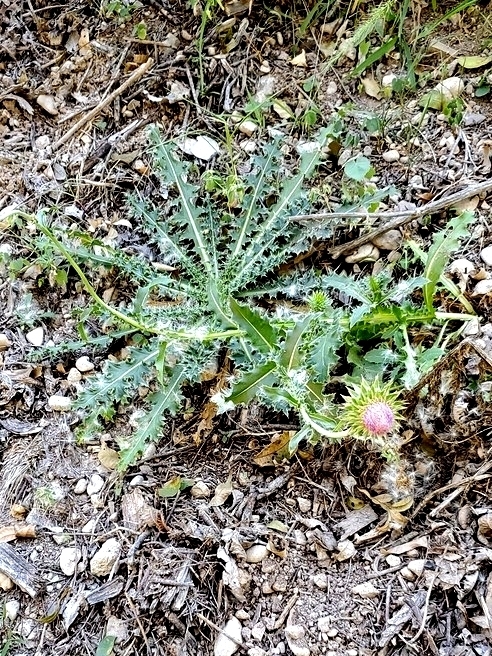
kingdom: Plantae
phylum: Tracheophyta
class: Magnoliopsida
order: Asterales
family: Asteraceae
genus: Carduus
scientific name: Carduus nutans
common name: Musk thistle
